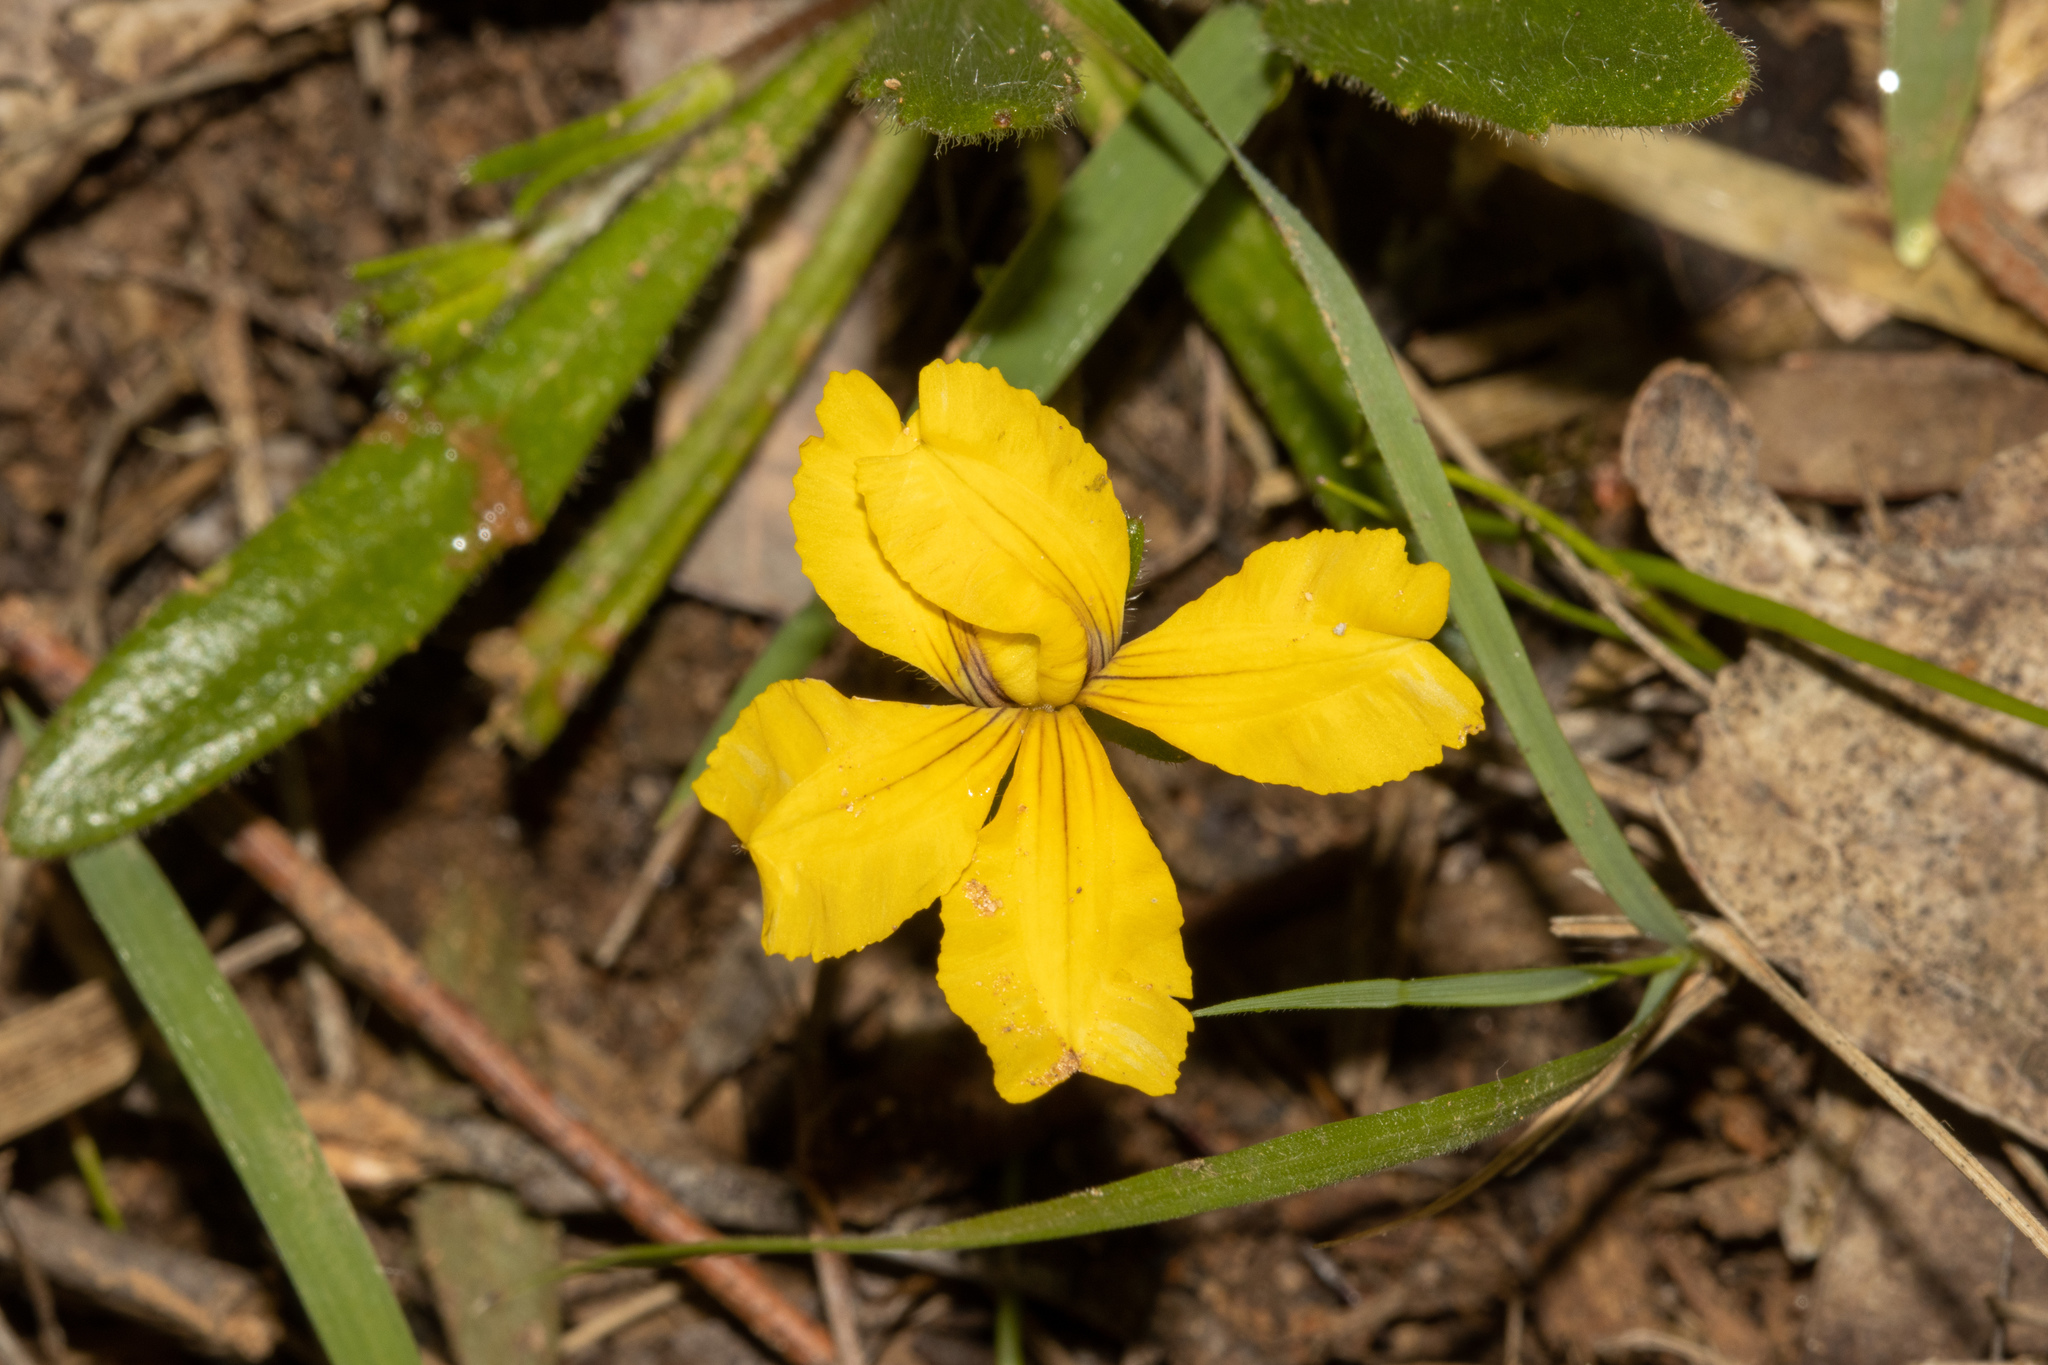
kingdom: Plantae
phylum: Tracheophyta
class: Magnoliopsida
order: Asterales
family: Goodeniaceae
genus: Goodenia
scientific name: Goodenia geniculata
